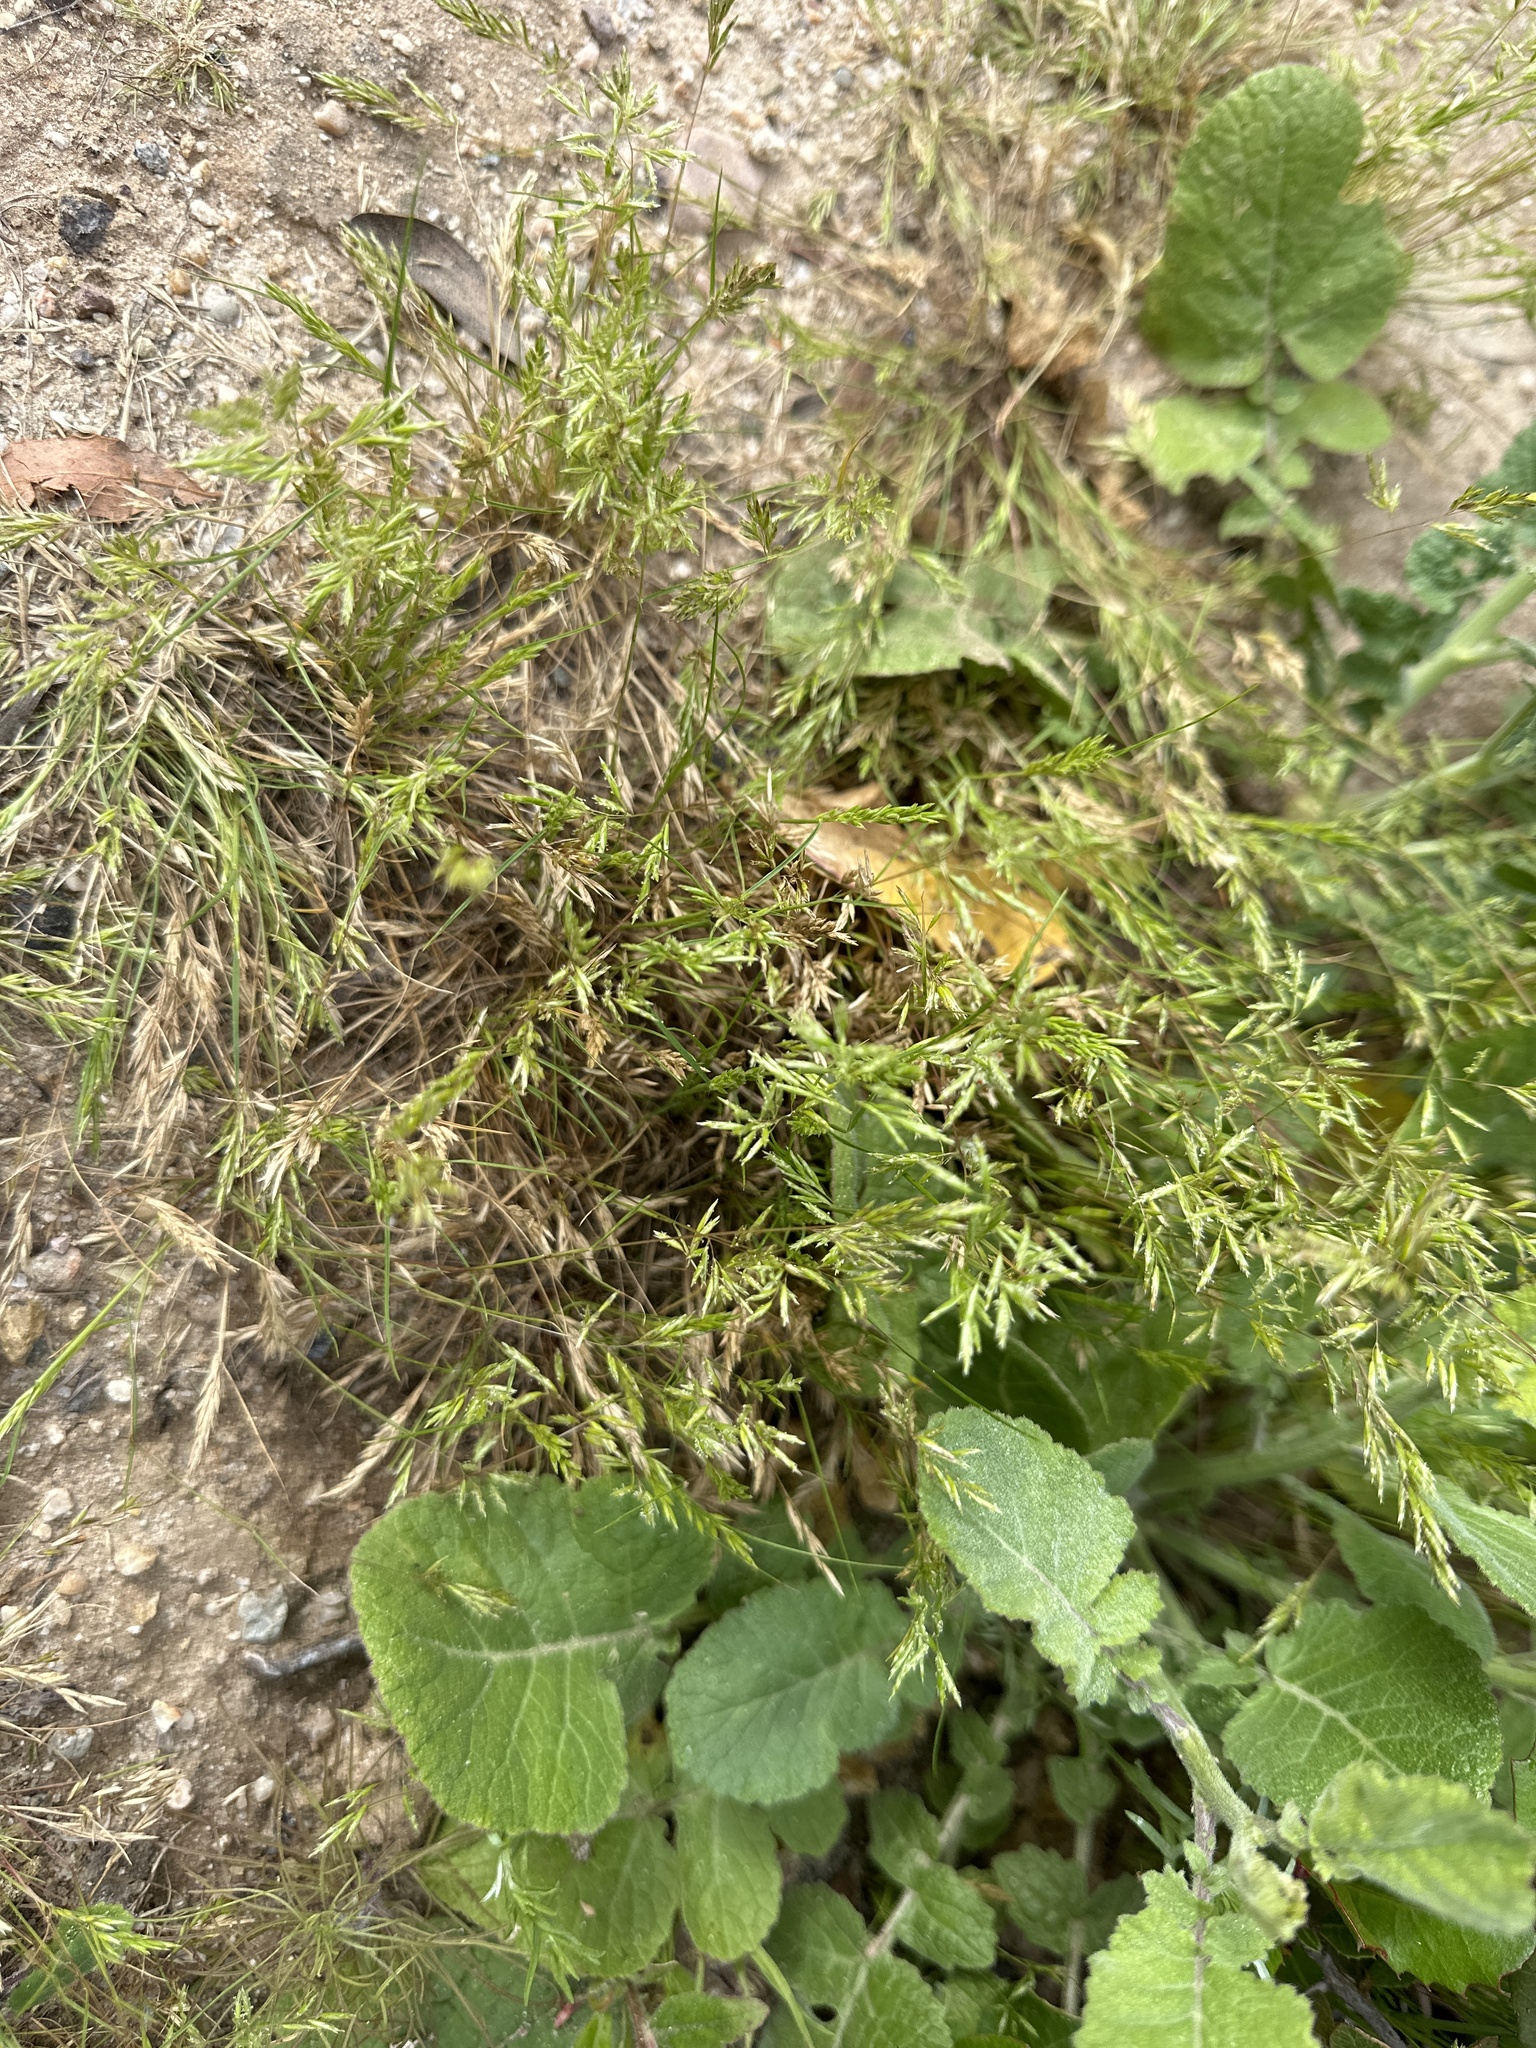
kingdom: Plantae
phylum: Tracheophyta
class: Liliopsida
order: Poales
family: Poaceae
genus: Schismus
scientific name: Schismus barbatus
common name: Kelch-grass
